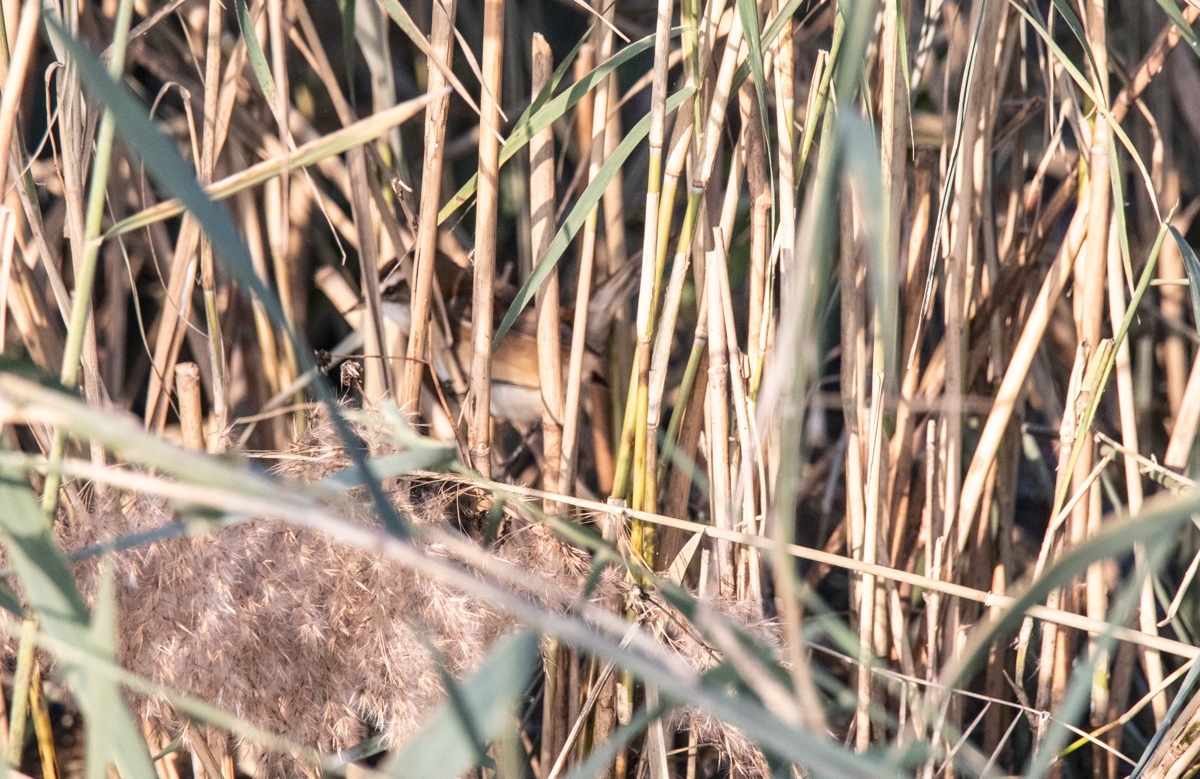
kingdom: Animalia
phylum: Chordata
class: Aves
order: Passeriformes
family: Acrocephalidae
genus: Acrocephalus
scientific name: Acrocephalus melanopogon
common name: Moustached warbler
